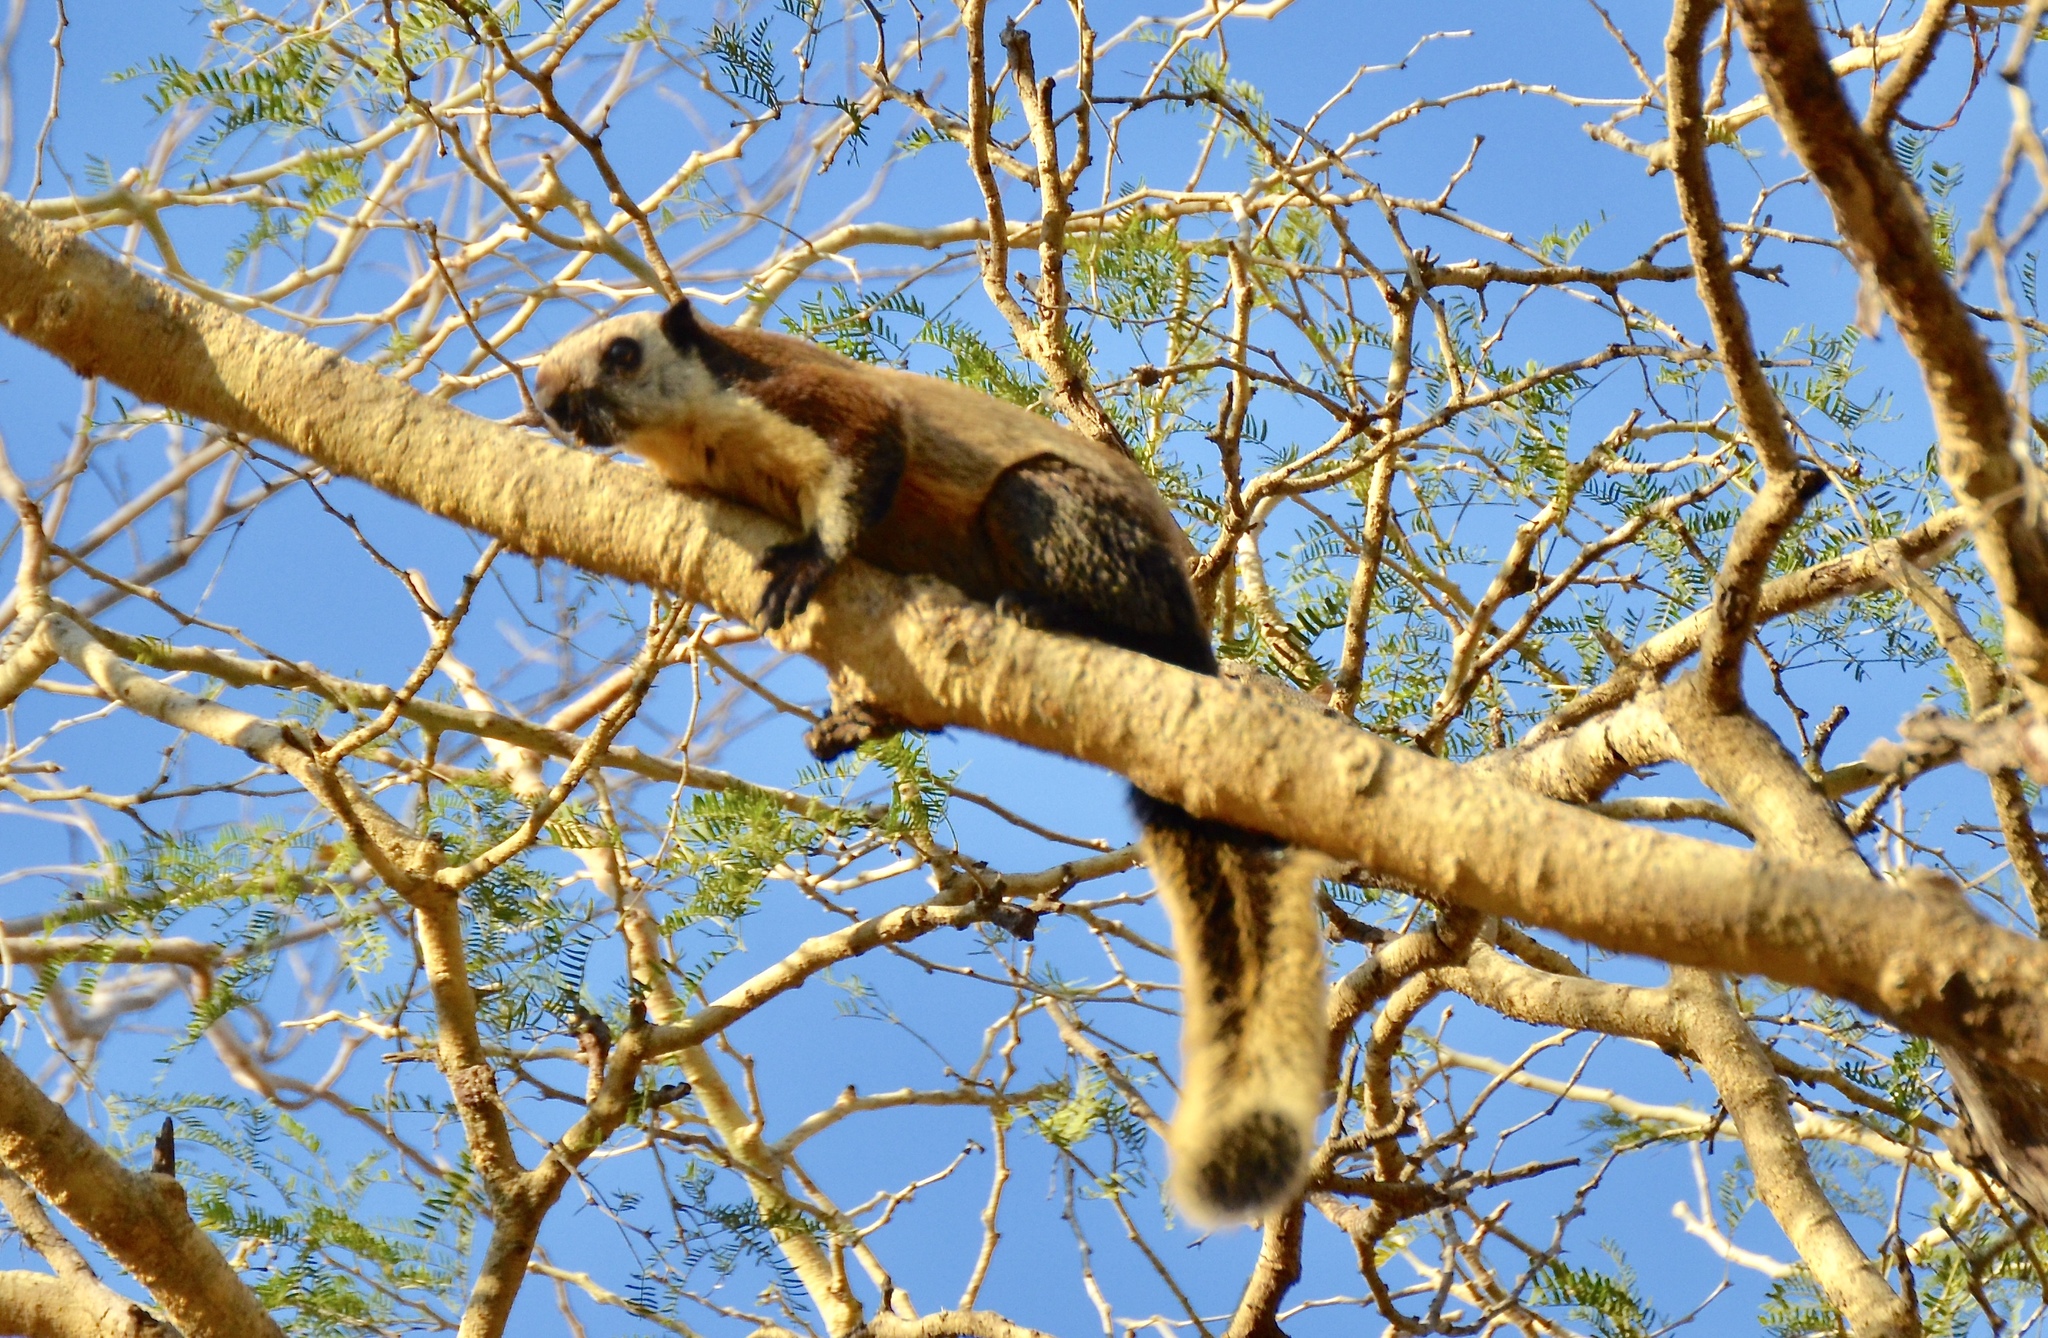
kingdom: Animalia
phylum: Chordata
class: Mammalia
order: Rodentia
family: Sciuridae
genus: Ratufa
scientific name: Ratufa bicolor
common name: Black giant squirrel
